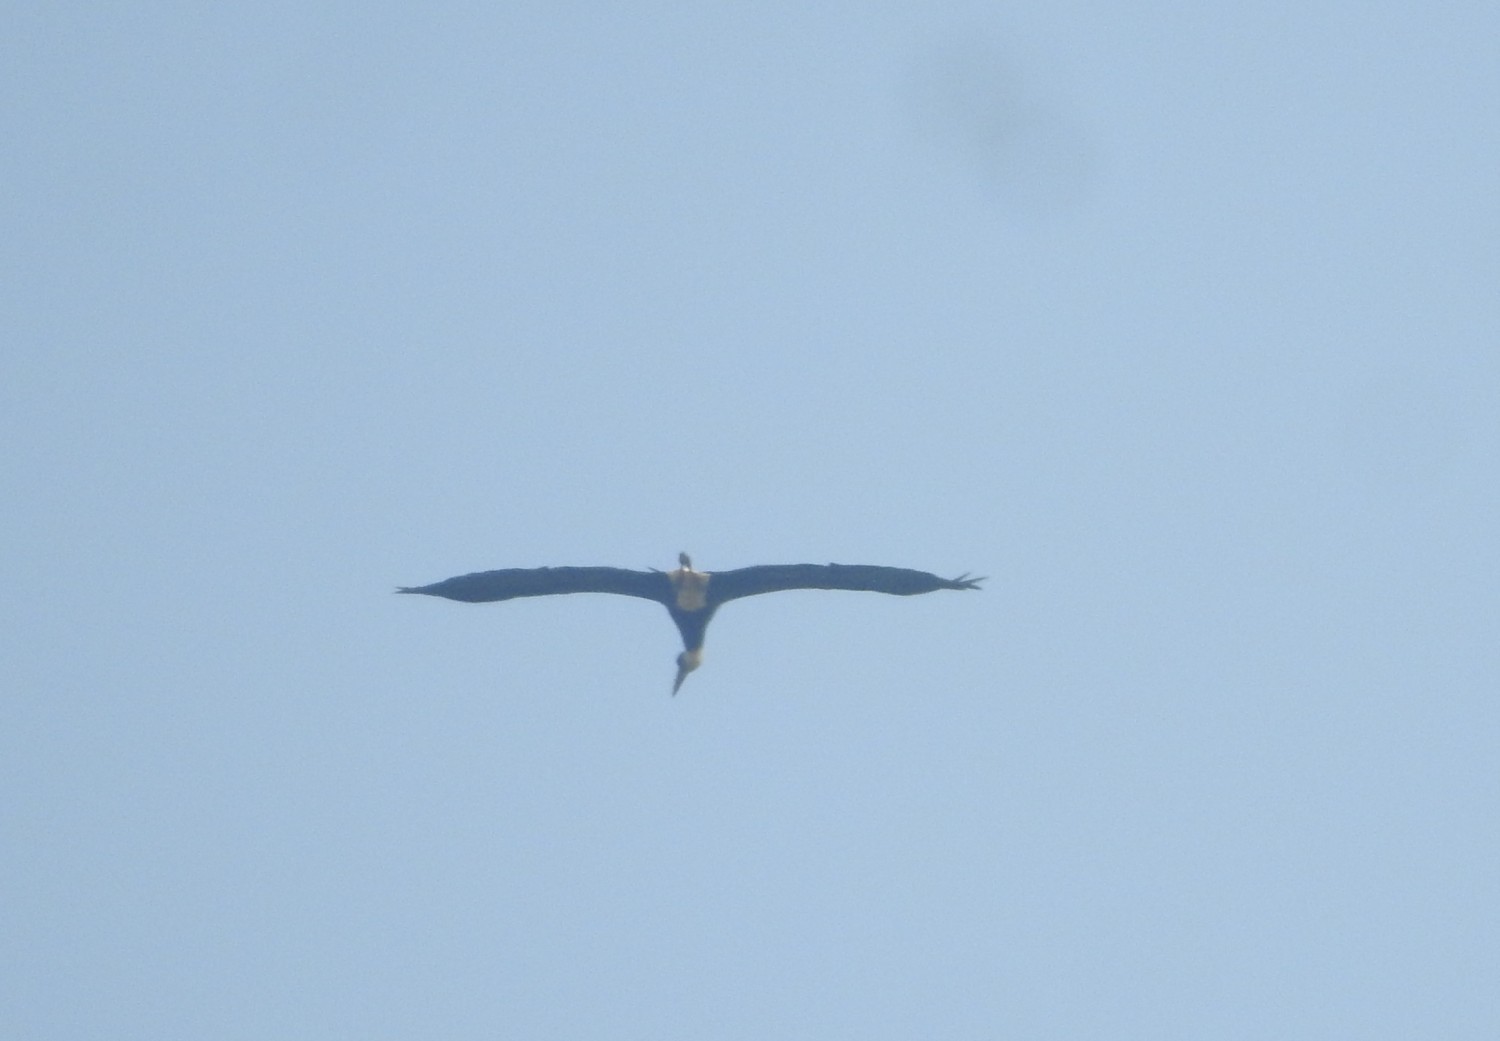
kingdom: Animalia
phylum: Chordata
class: Aves
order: Ciconiiformes
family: Ciconiidae
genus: Ciconia
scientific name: Ciconia episcopus
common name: Woolly-necked stork
